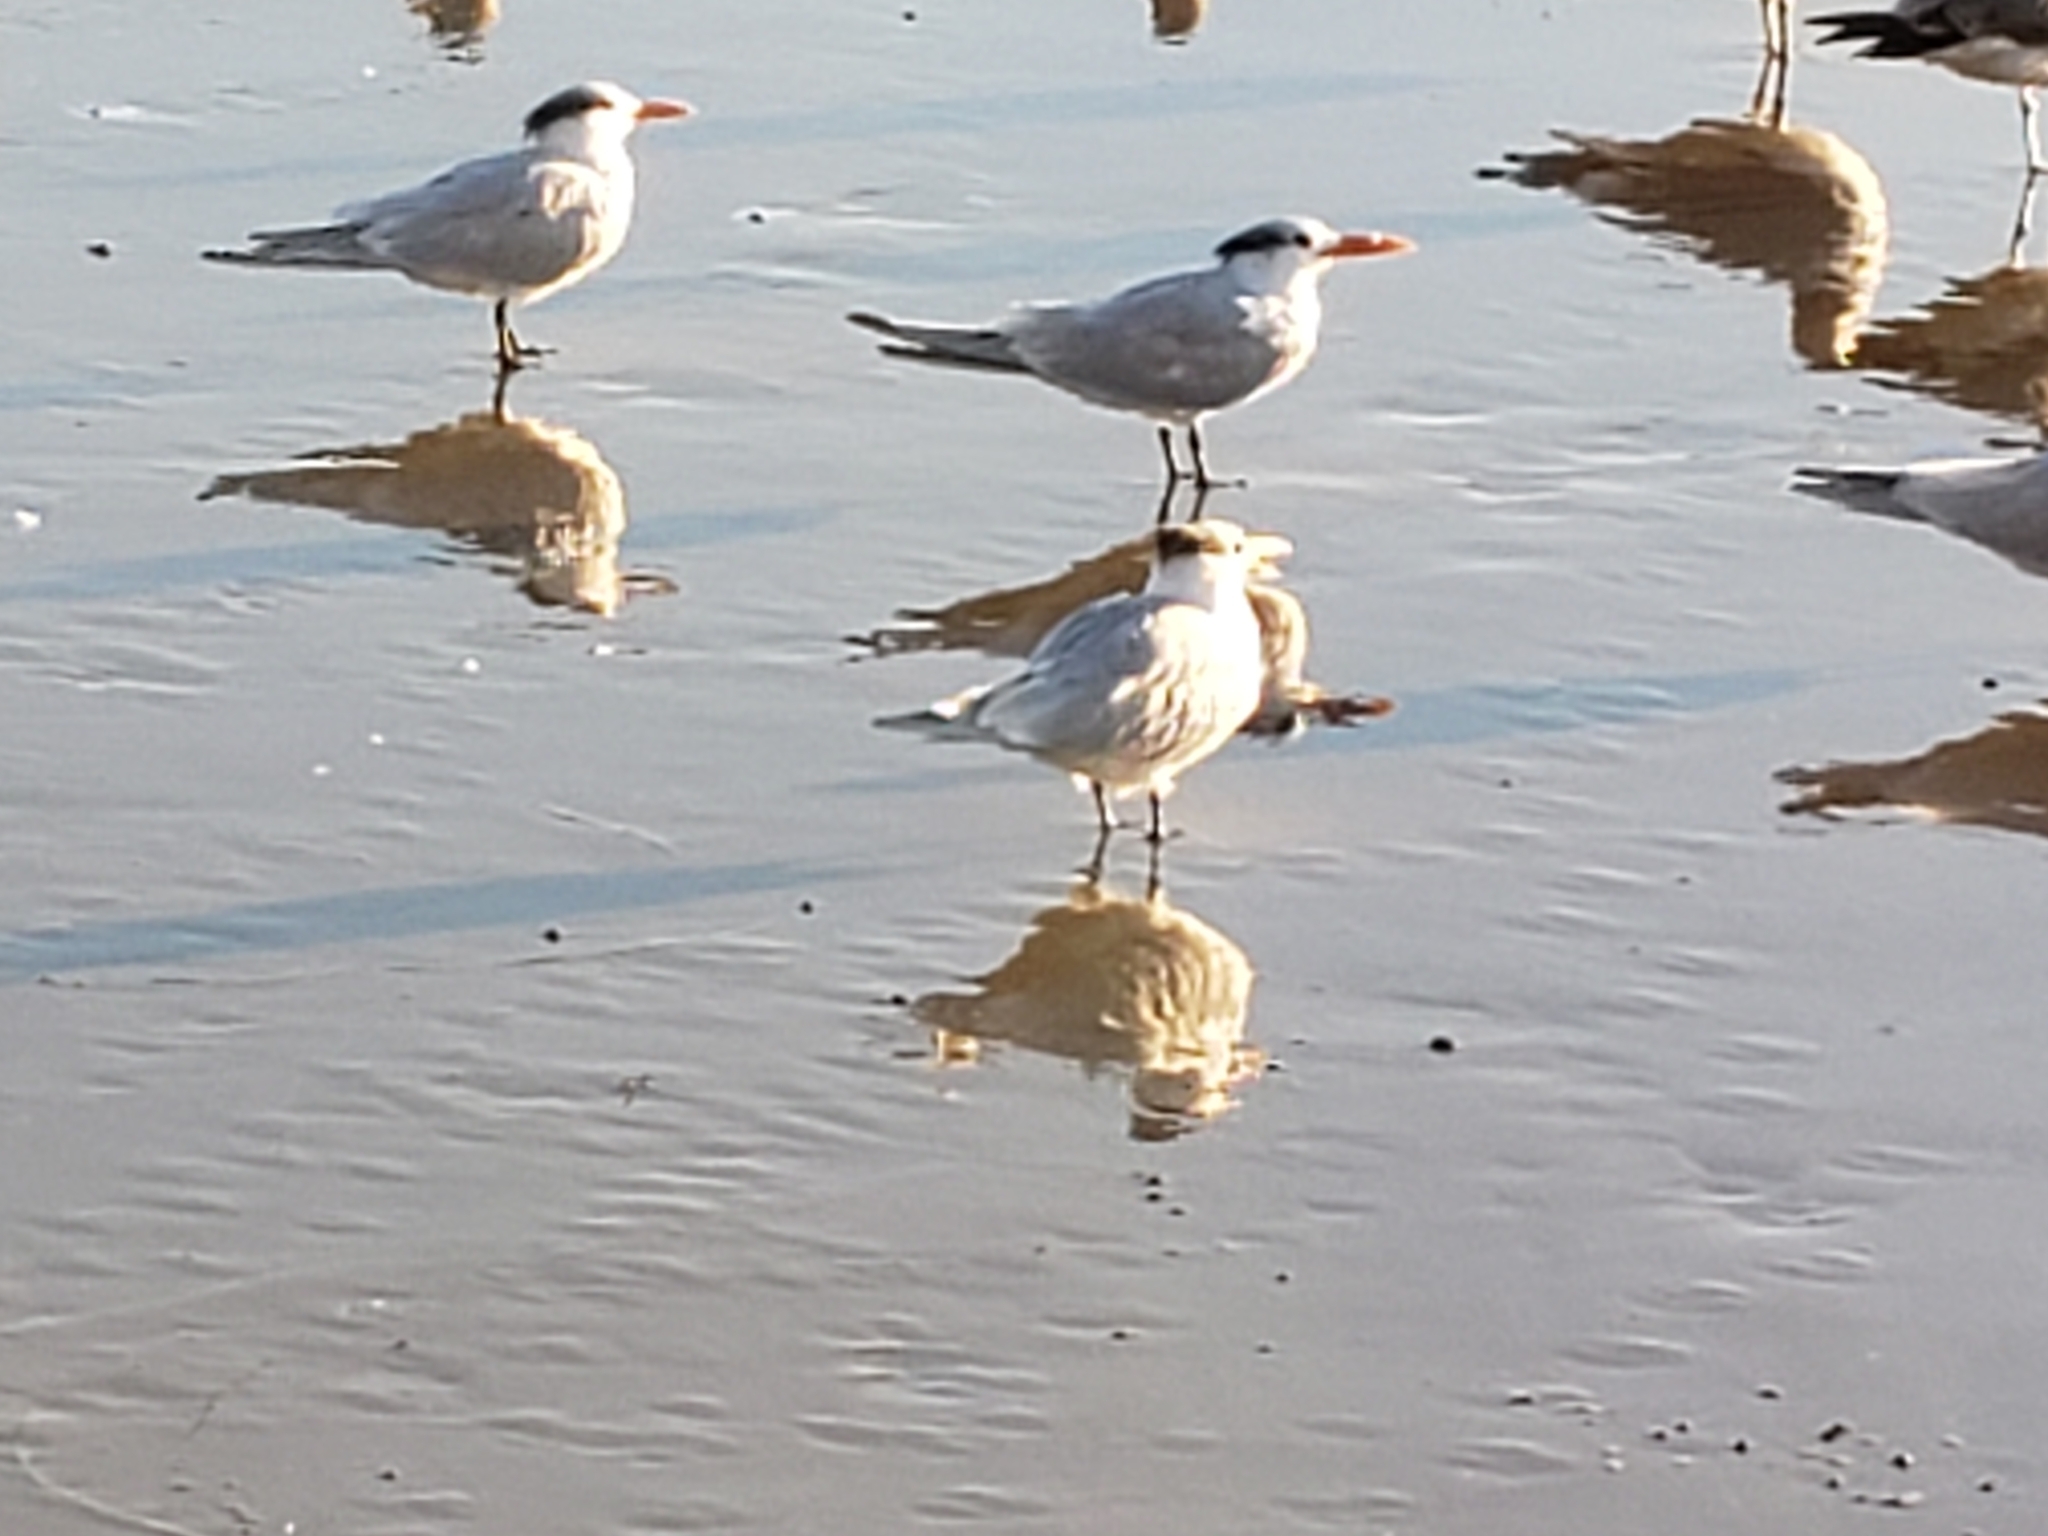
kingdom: Animalia
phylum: Chordata
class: Aves
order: Charadriiformes
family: Laridae
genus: Thalasseus
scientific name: Thalasseus maximus
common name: Royal tern
